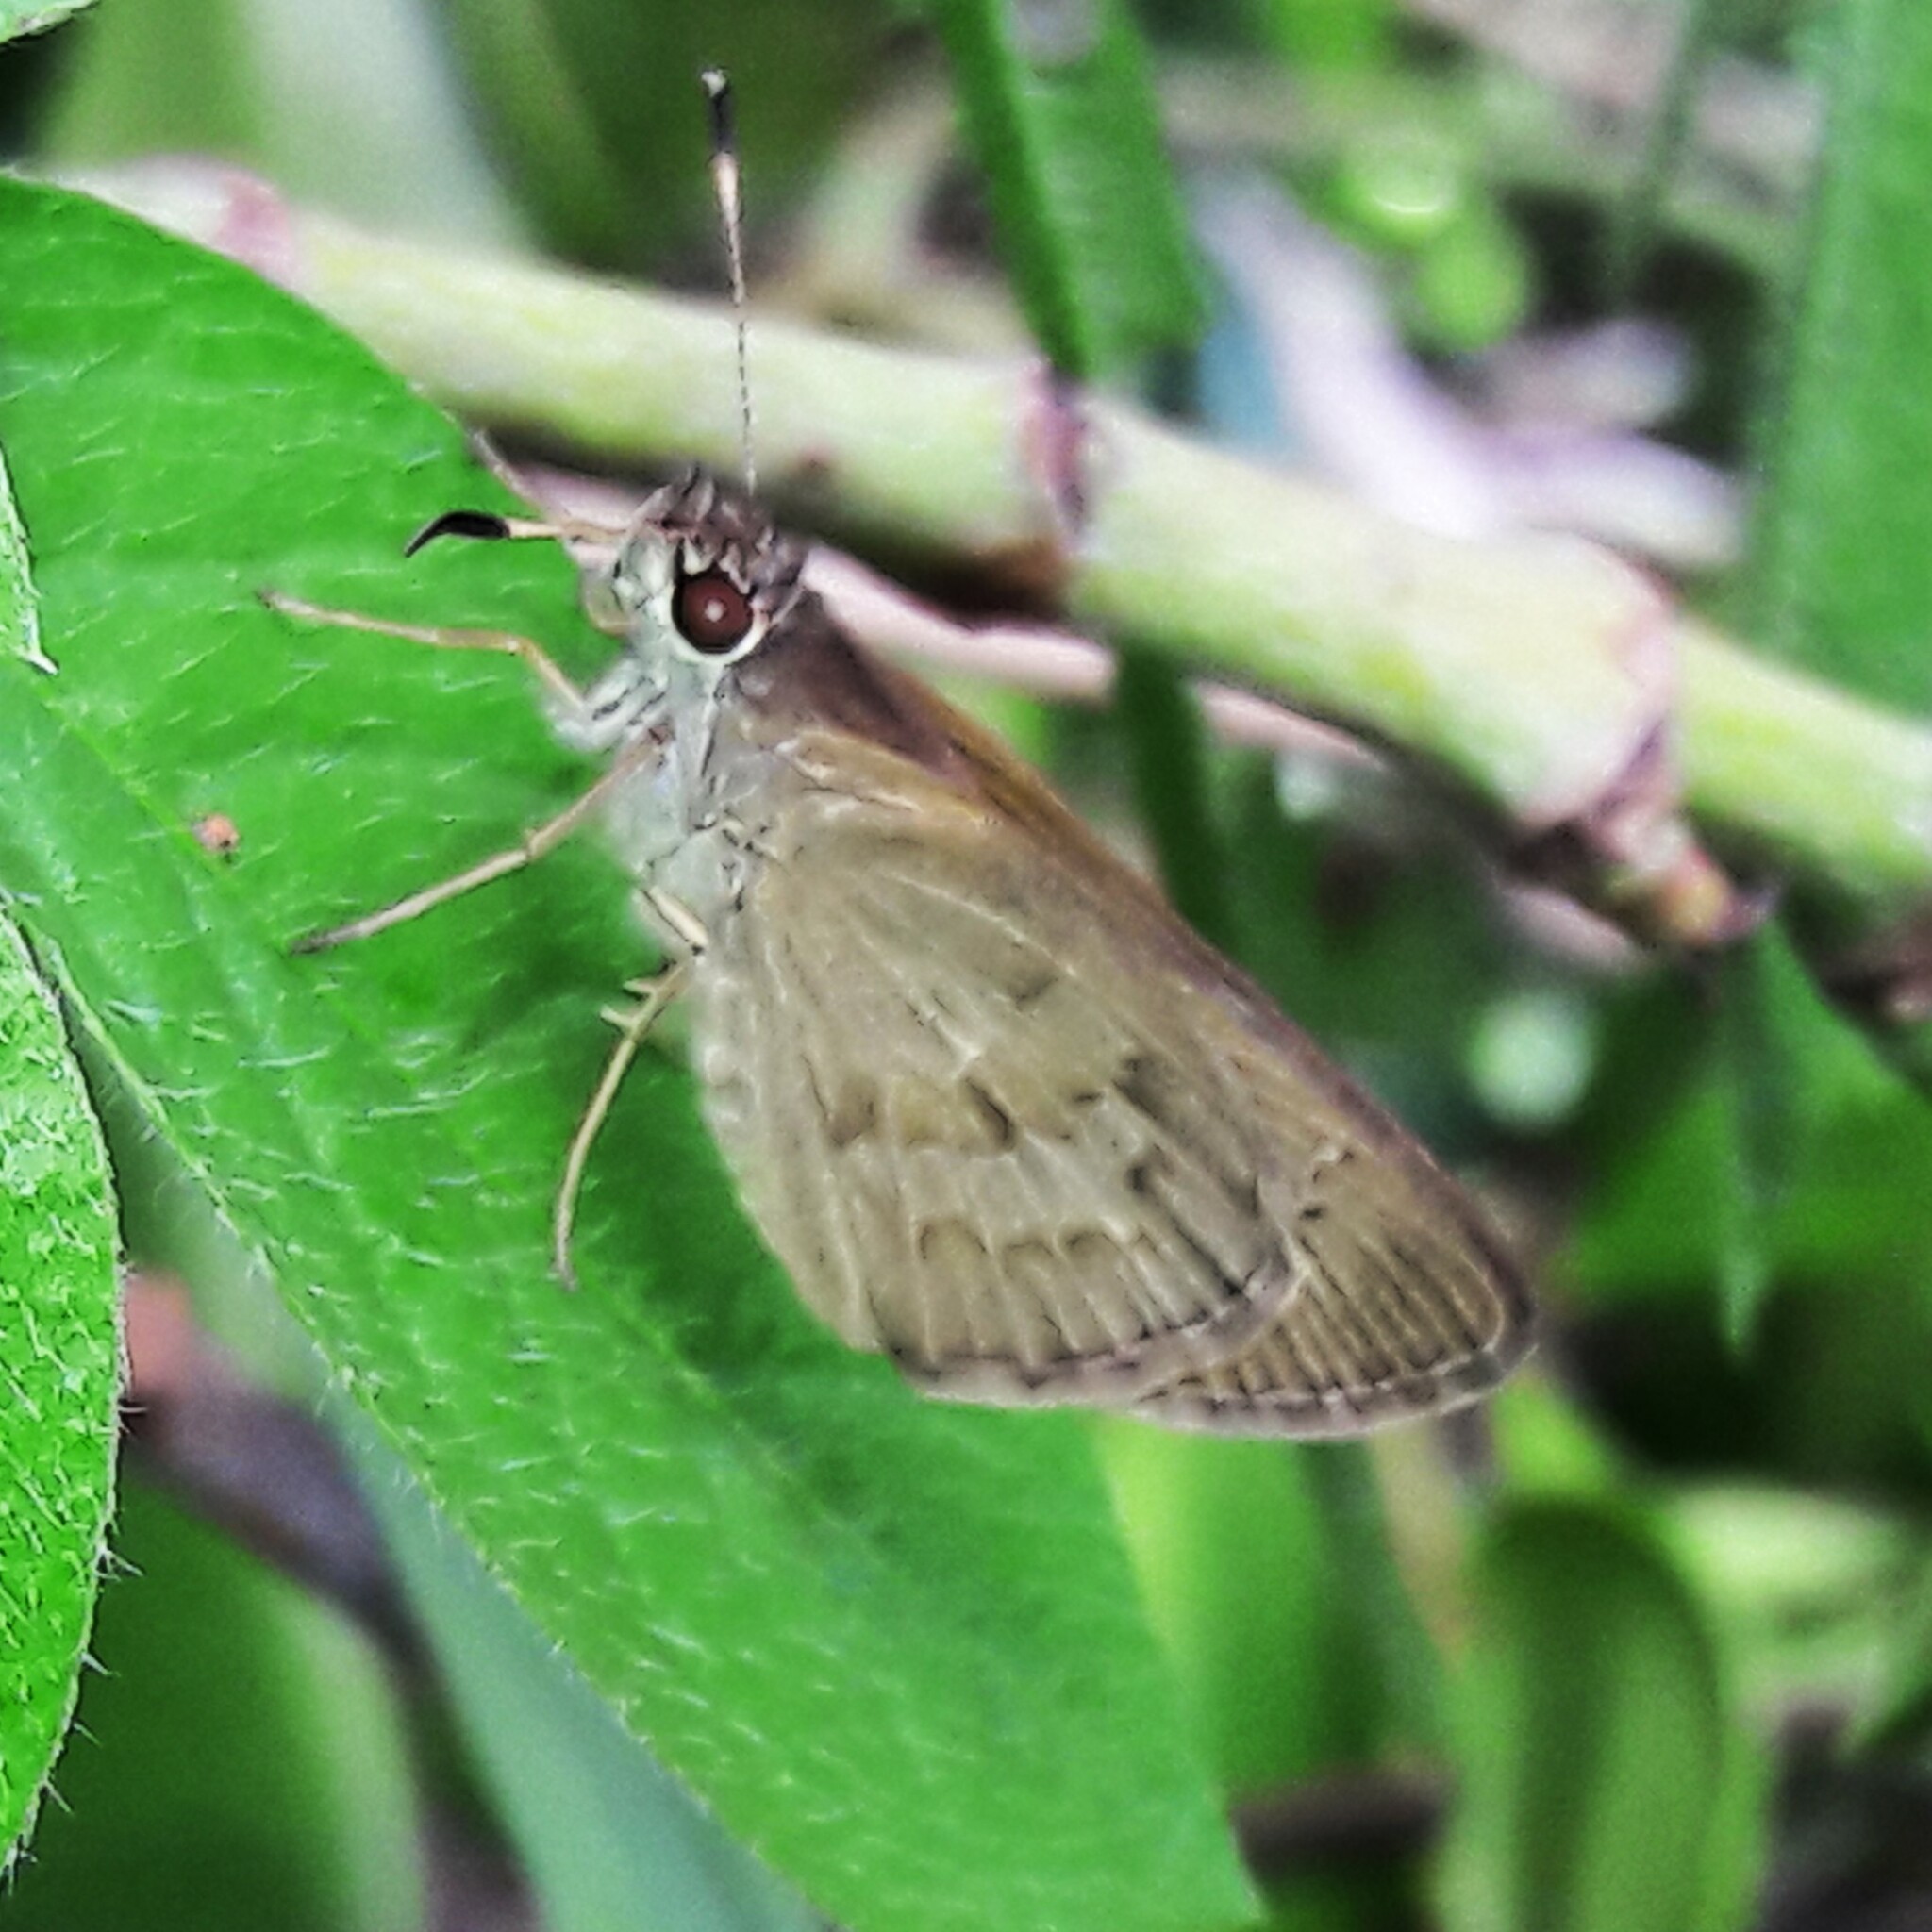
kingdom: Animalia
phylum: Arthropoda
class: Insecta
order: Lepidoptera
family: Hesperiidae
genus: Cymaenes
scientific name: Cymaenes gisca
